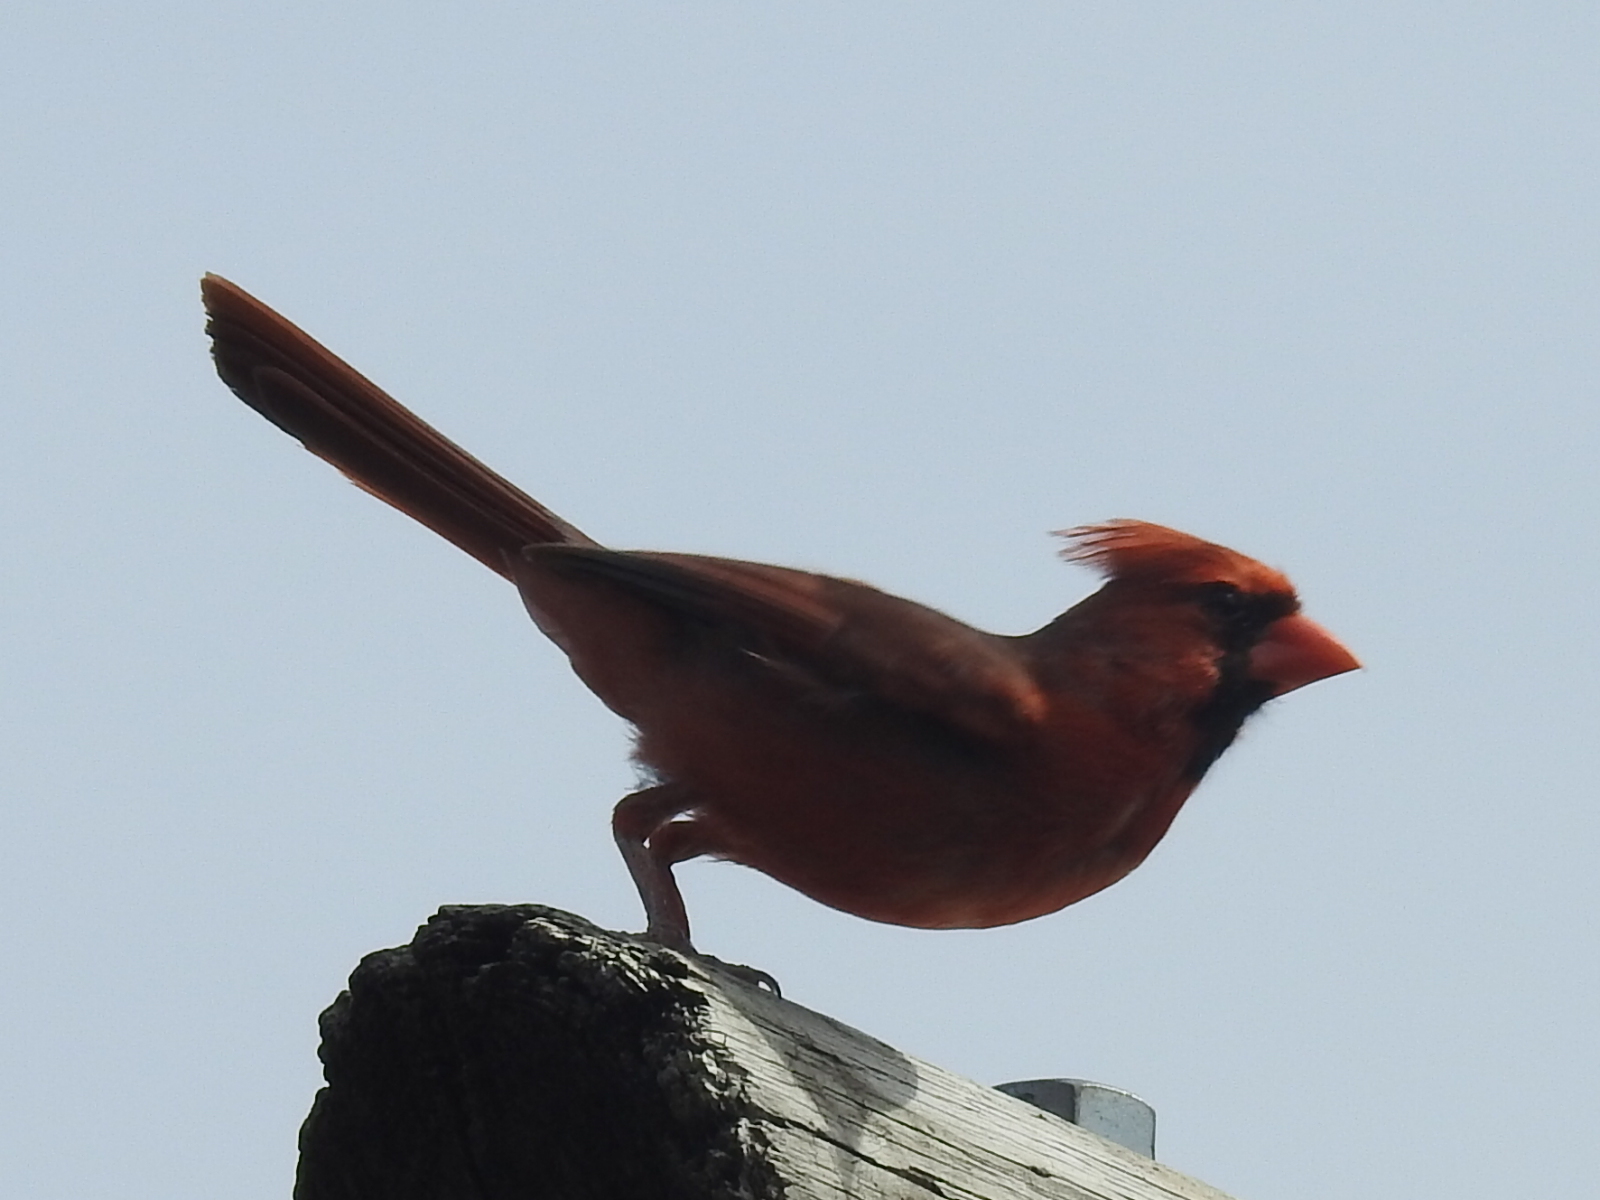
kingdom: Animalia
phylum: Chordata
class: Aves
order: Passeriformes
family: Cardinalidae
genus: Cardinalis
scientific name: Cardinalis cardinalis
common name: Northern cardinal
